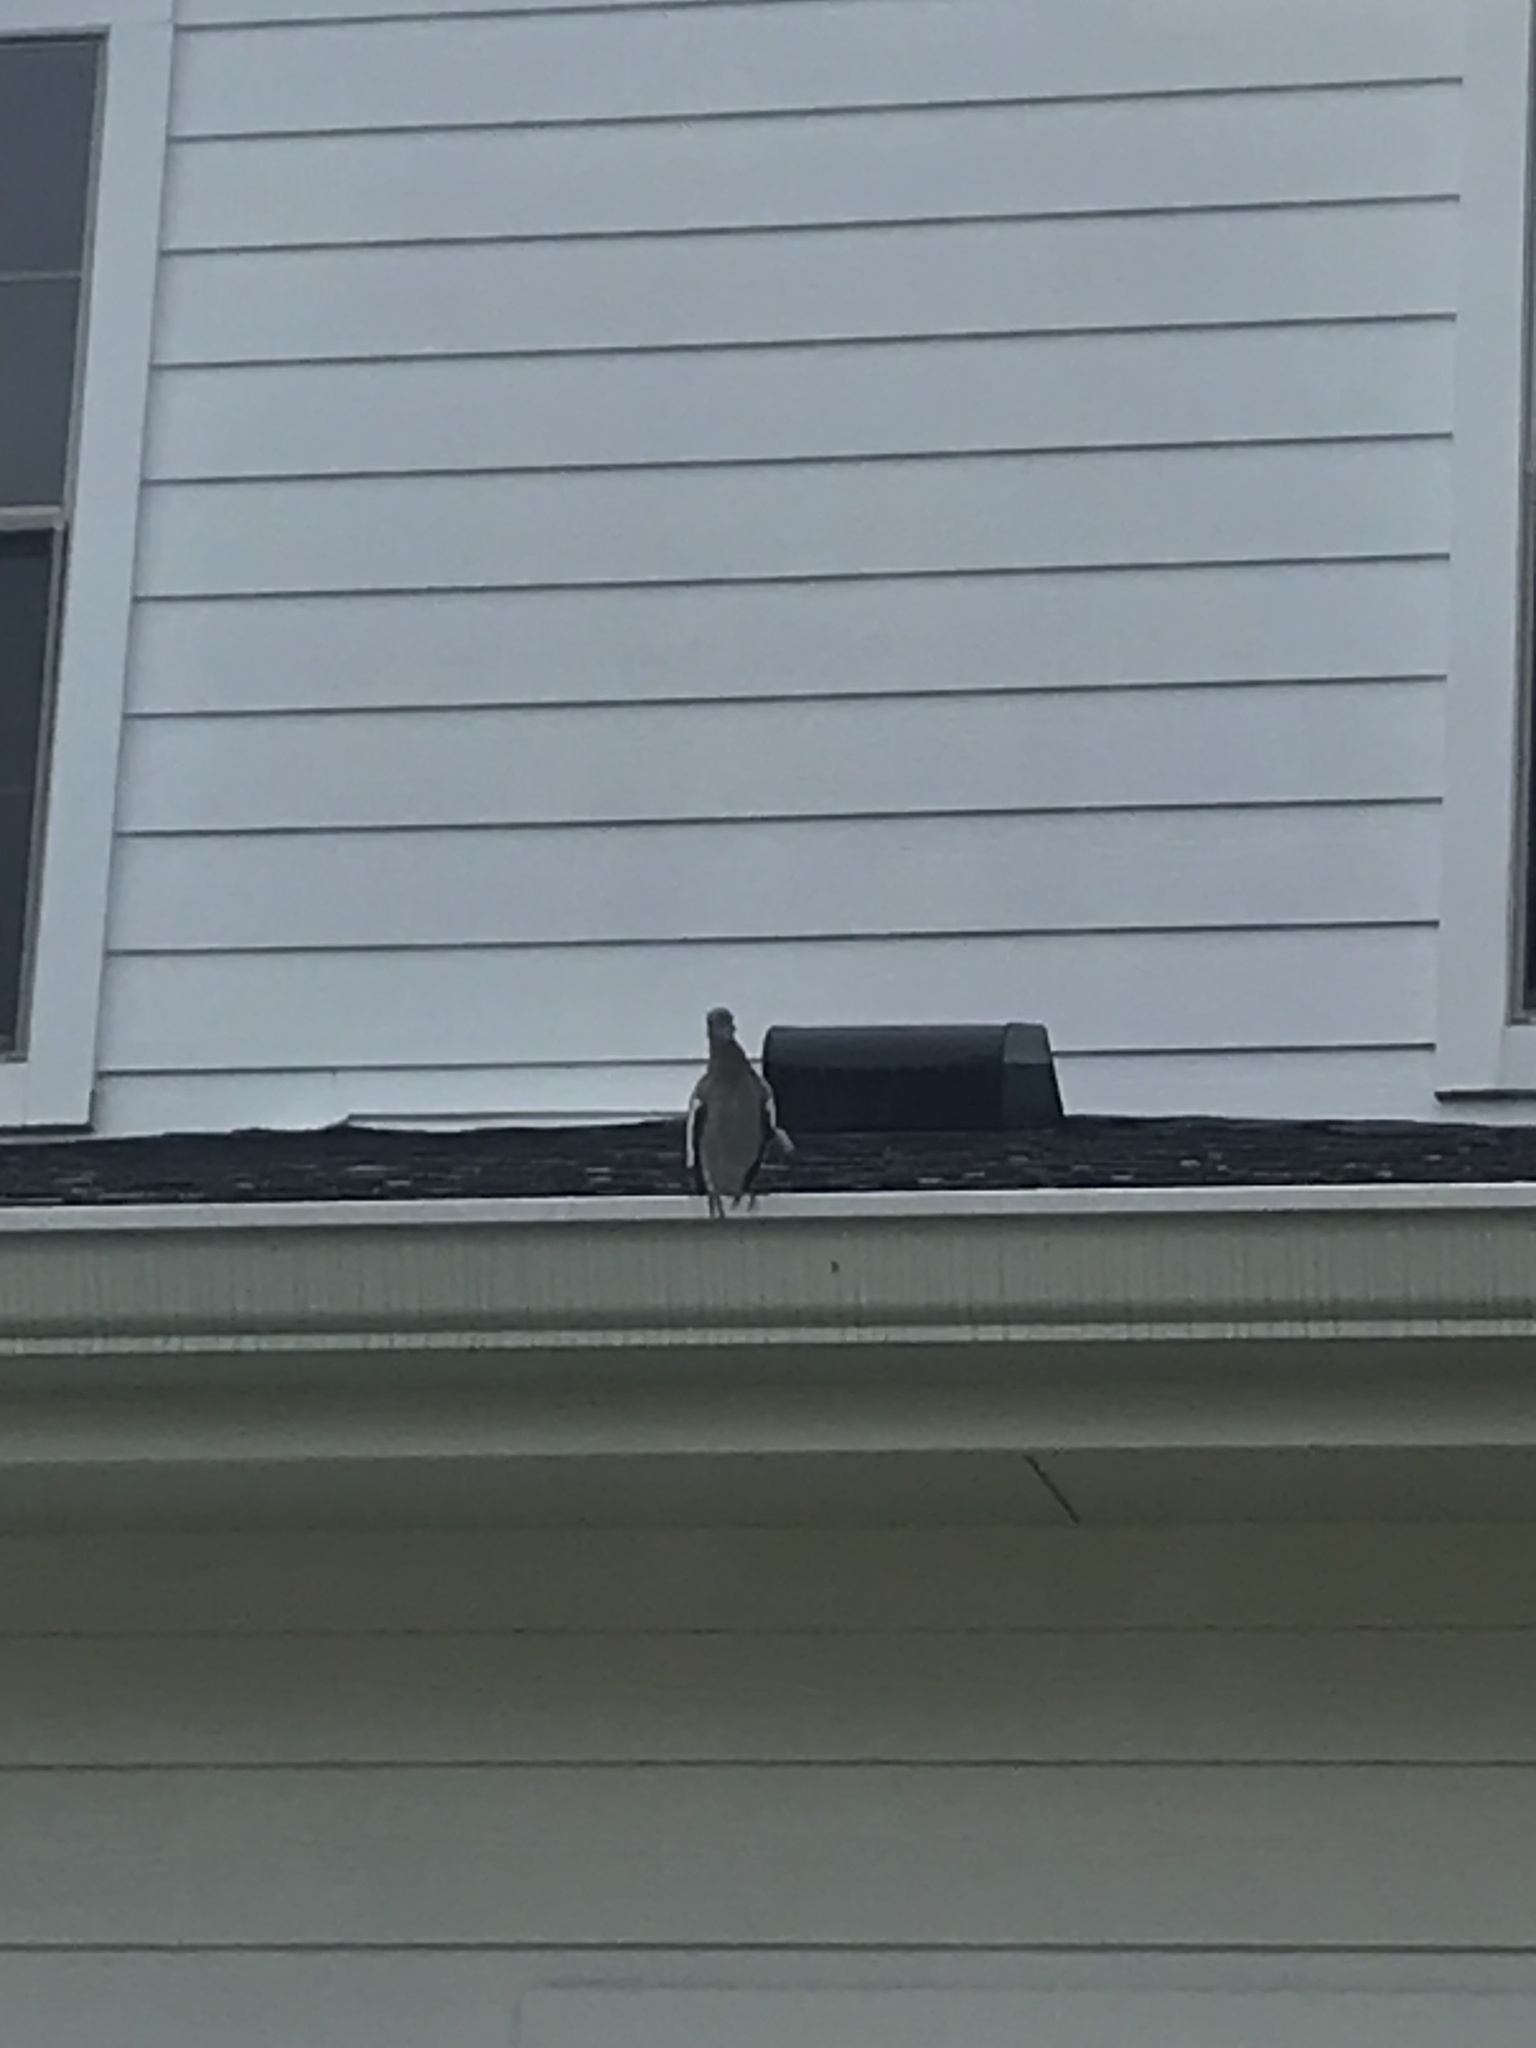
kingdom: Animalia
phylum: Chordata
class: Aves
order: Columbiformes
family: Columbidae
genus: Zenaida
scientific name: Zenaida asiatica
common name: White-winged dove
